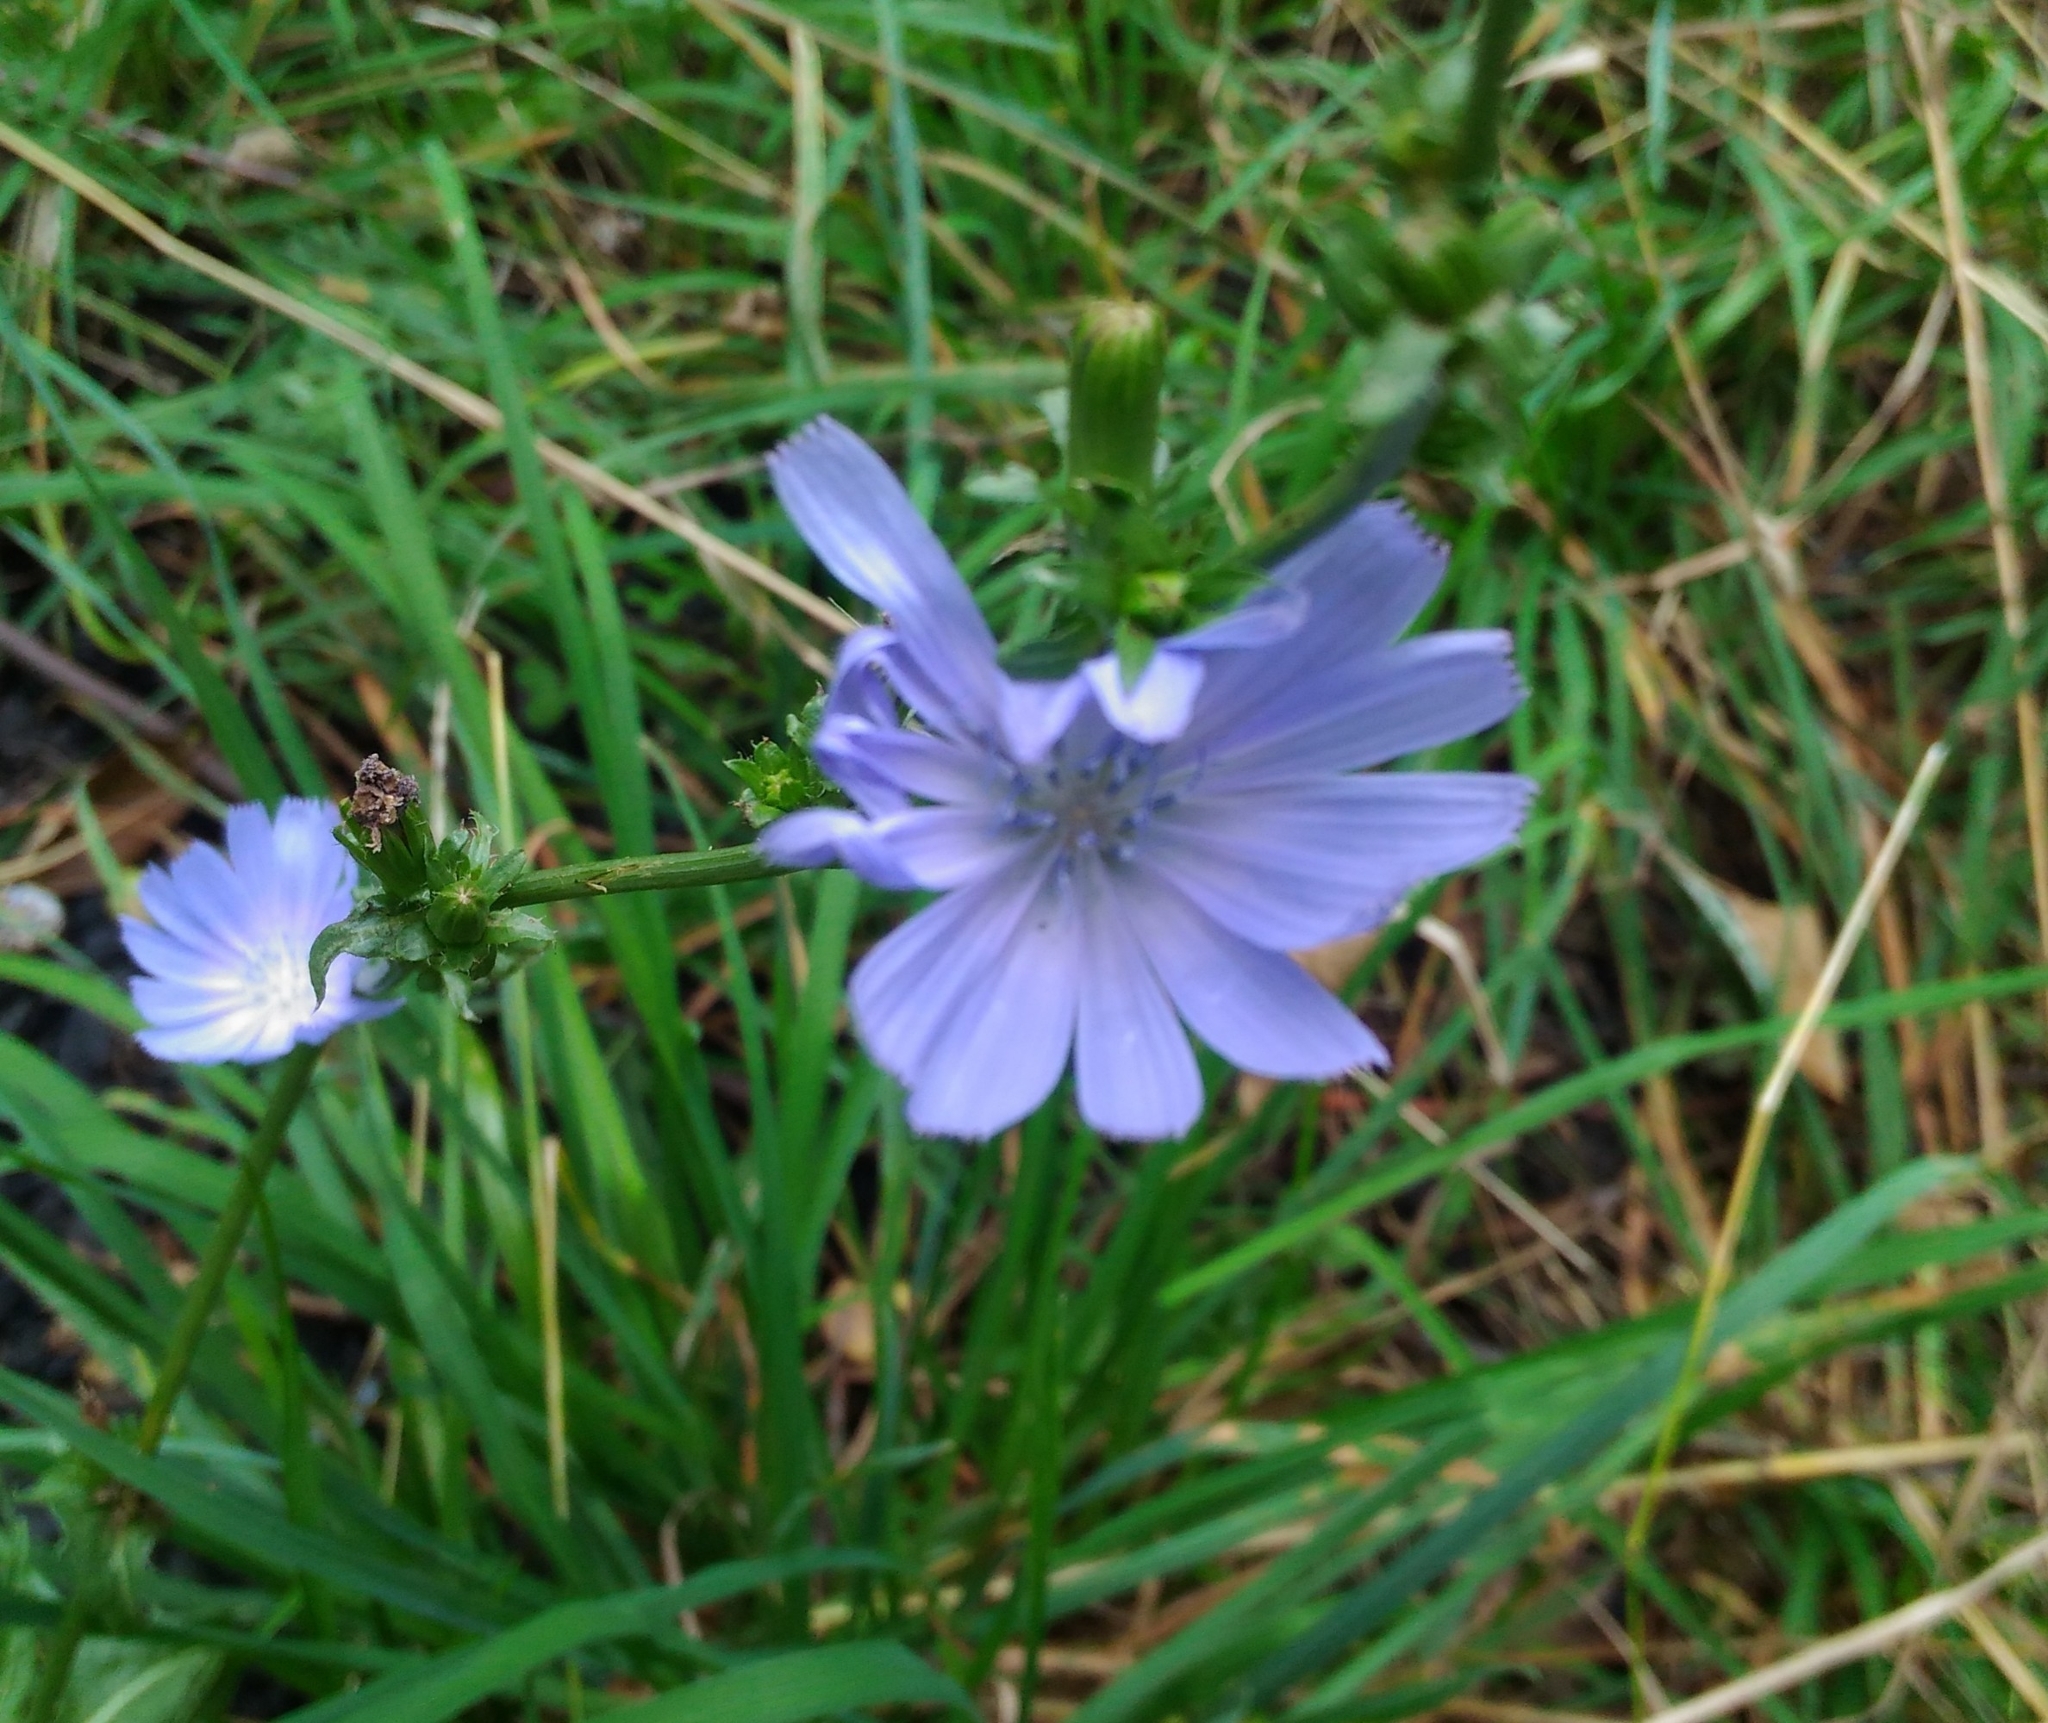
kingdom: Plantae
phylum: Tracheophyta
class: Magnoliopsida
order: Asterales
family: Asteraceae
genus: Cichorium
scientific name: Cichorium intybus
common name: Chicory
